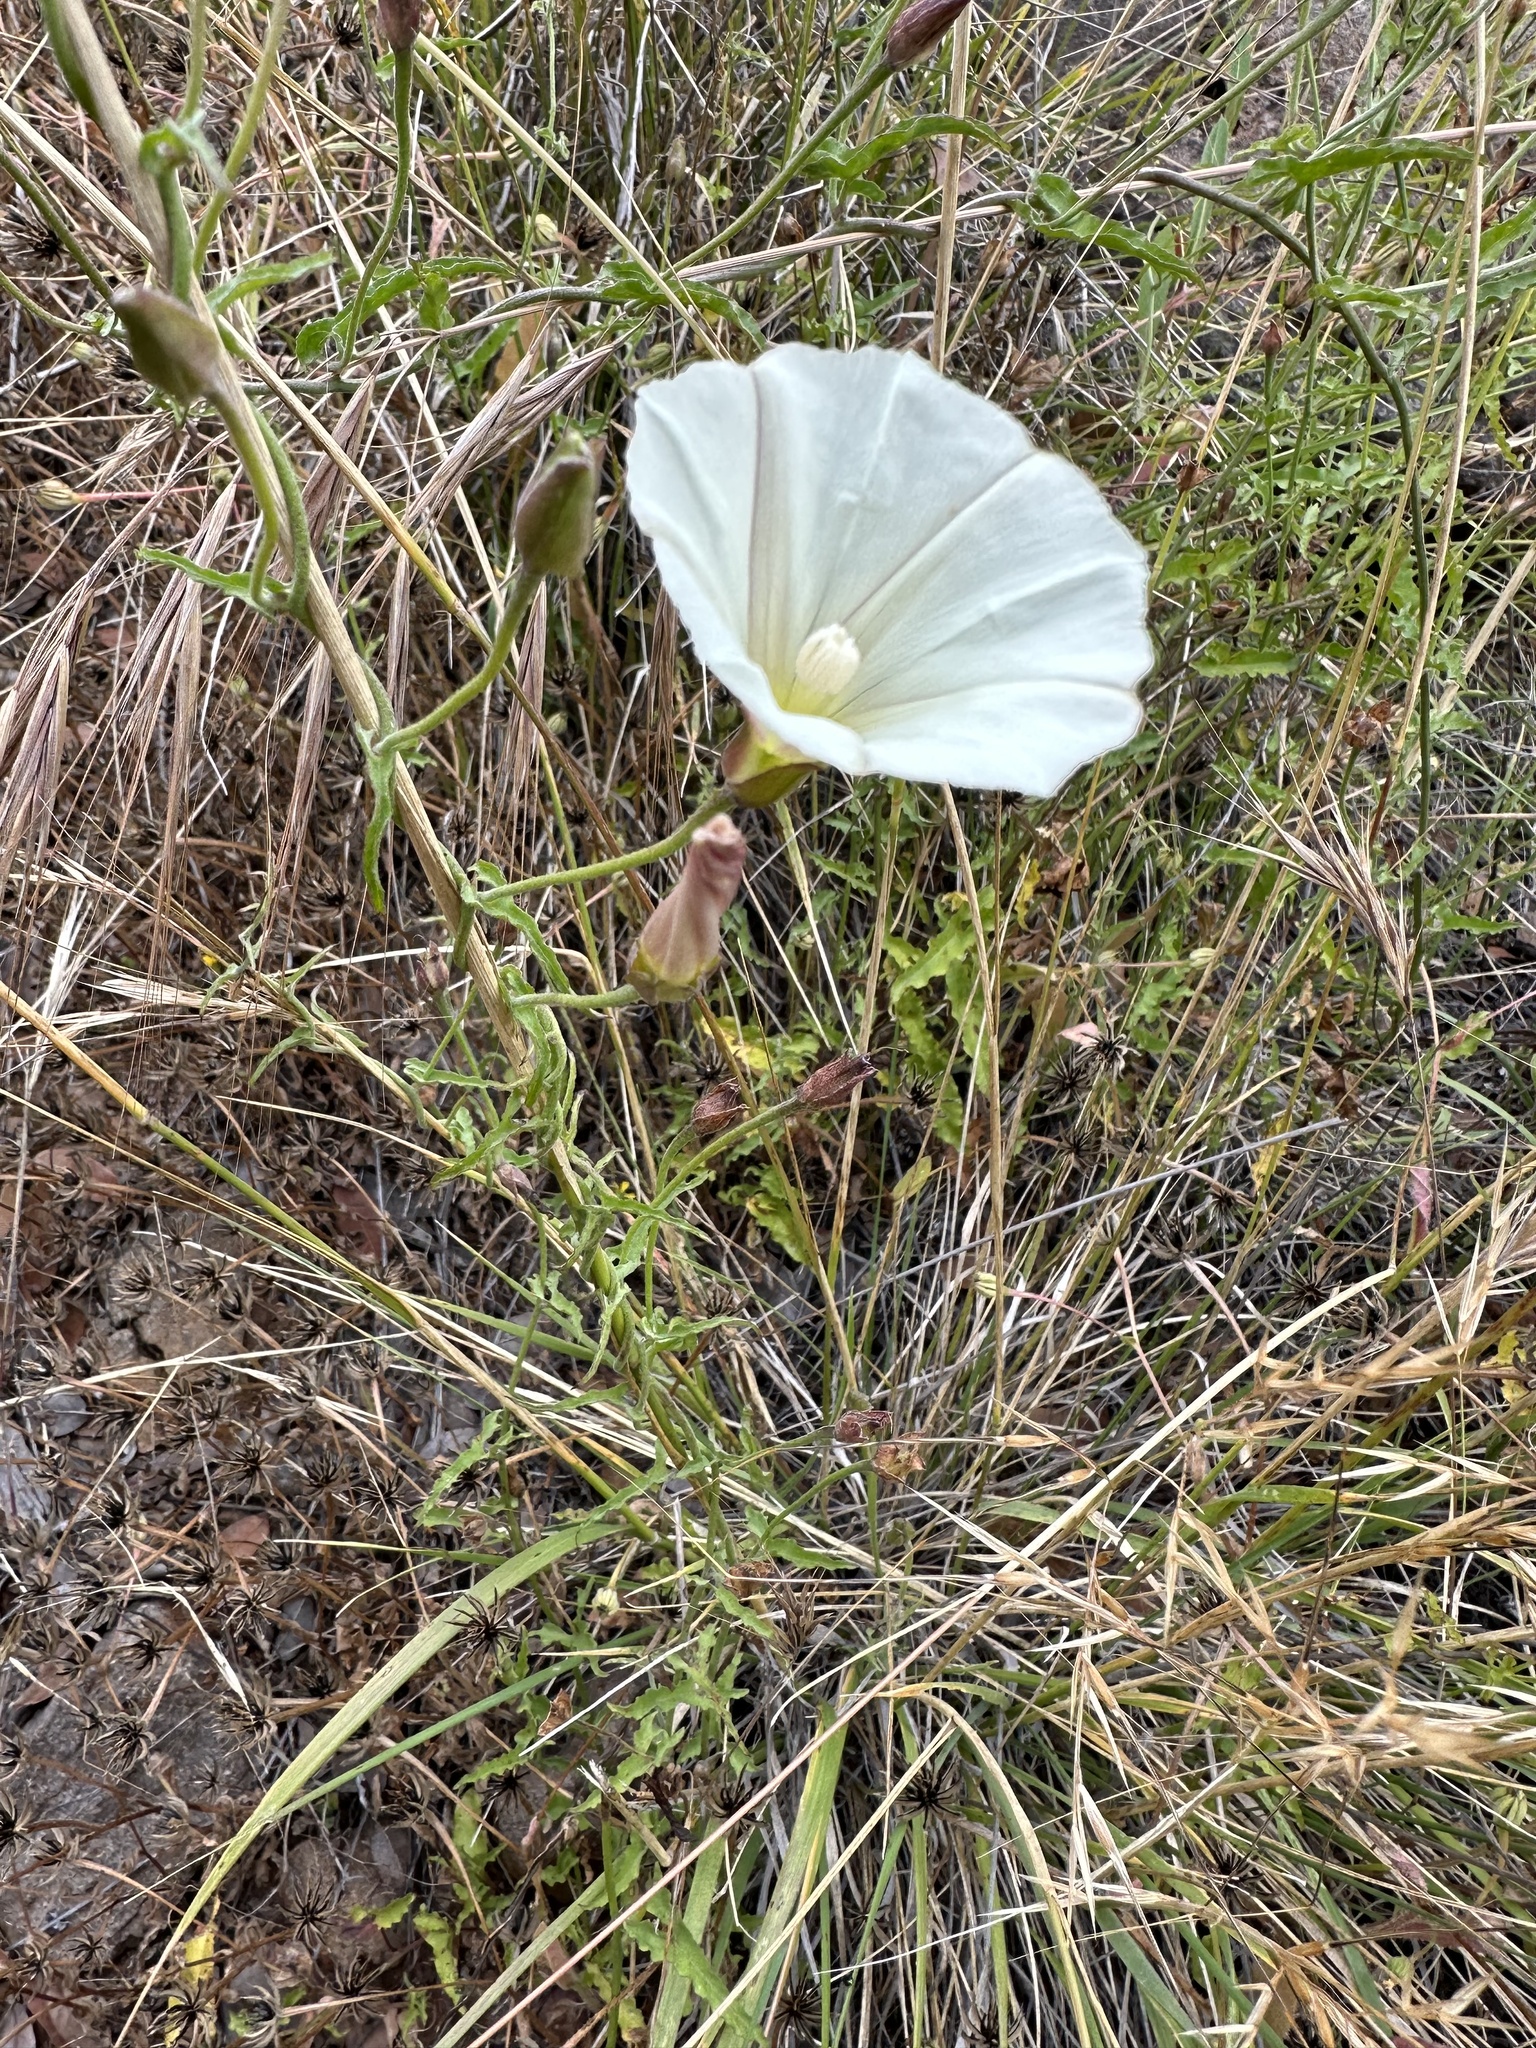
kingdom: Plantae
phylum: Tracheophyta
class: Magnoliopsida
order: Solanales
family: Convolvulaceae
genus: Calystegia
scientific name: Calystegia macrostegia
